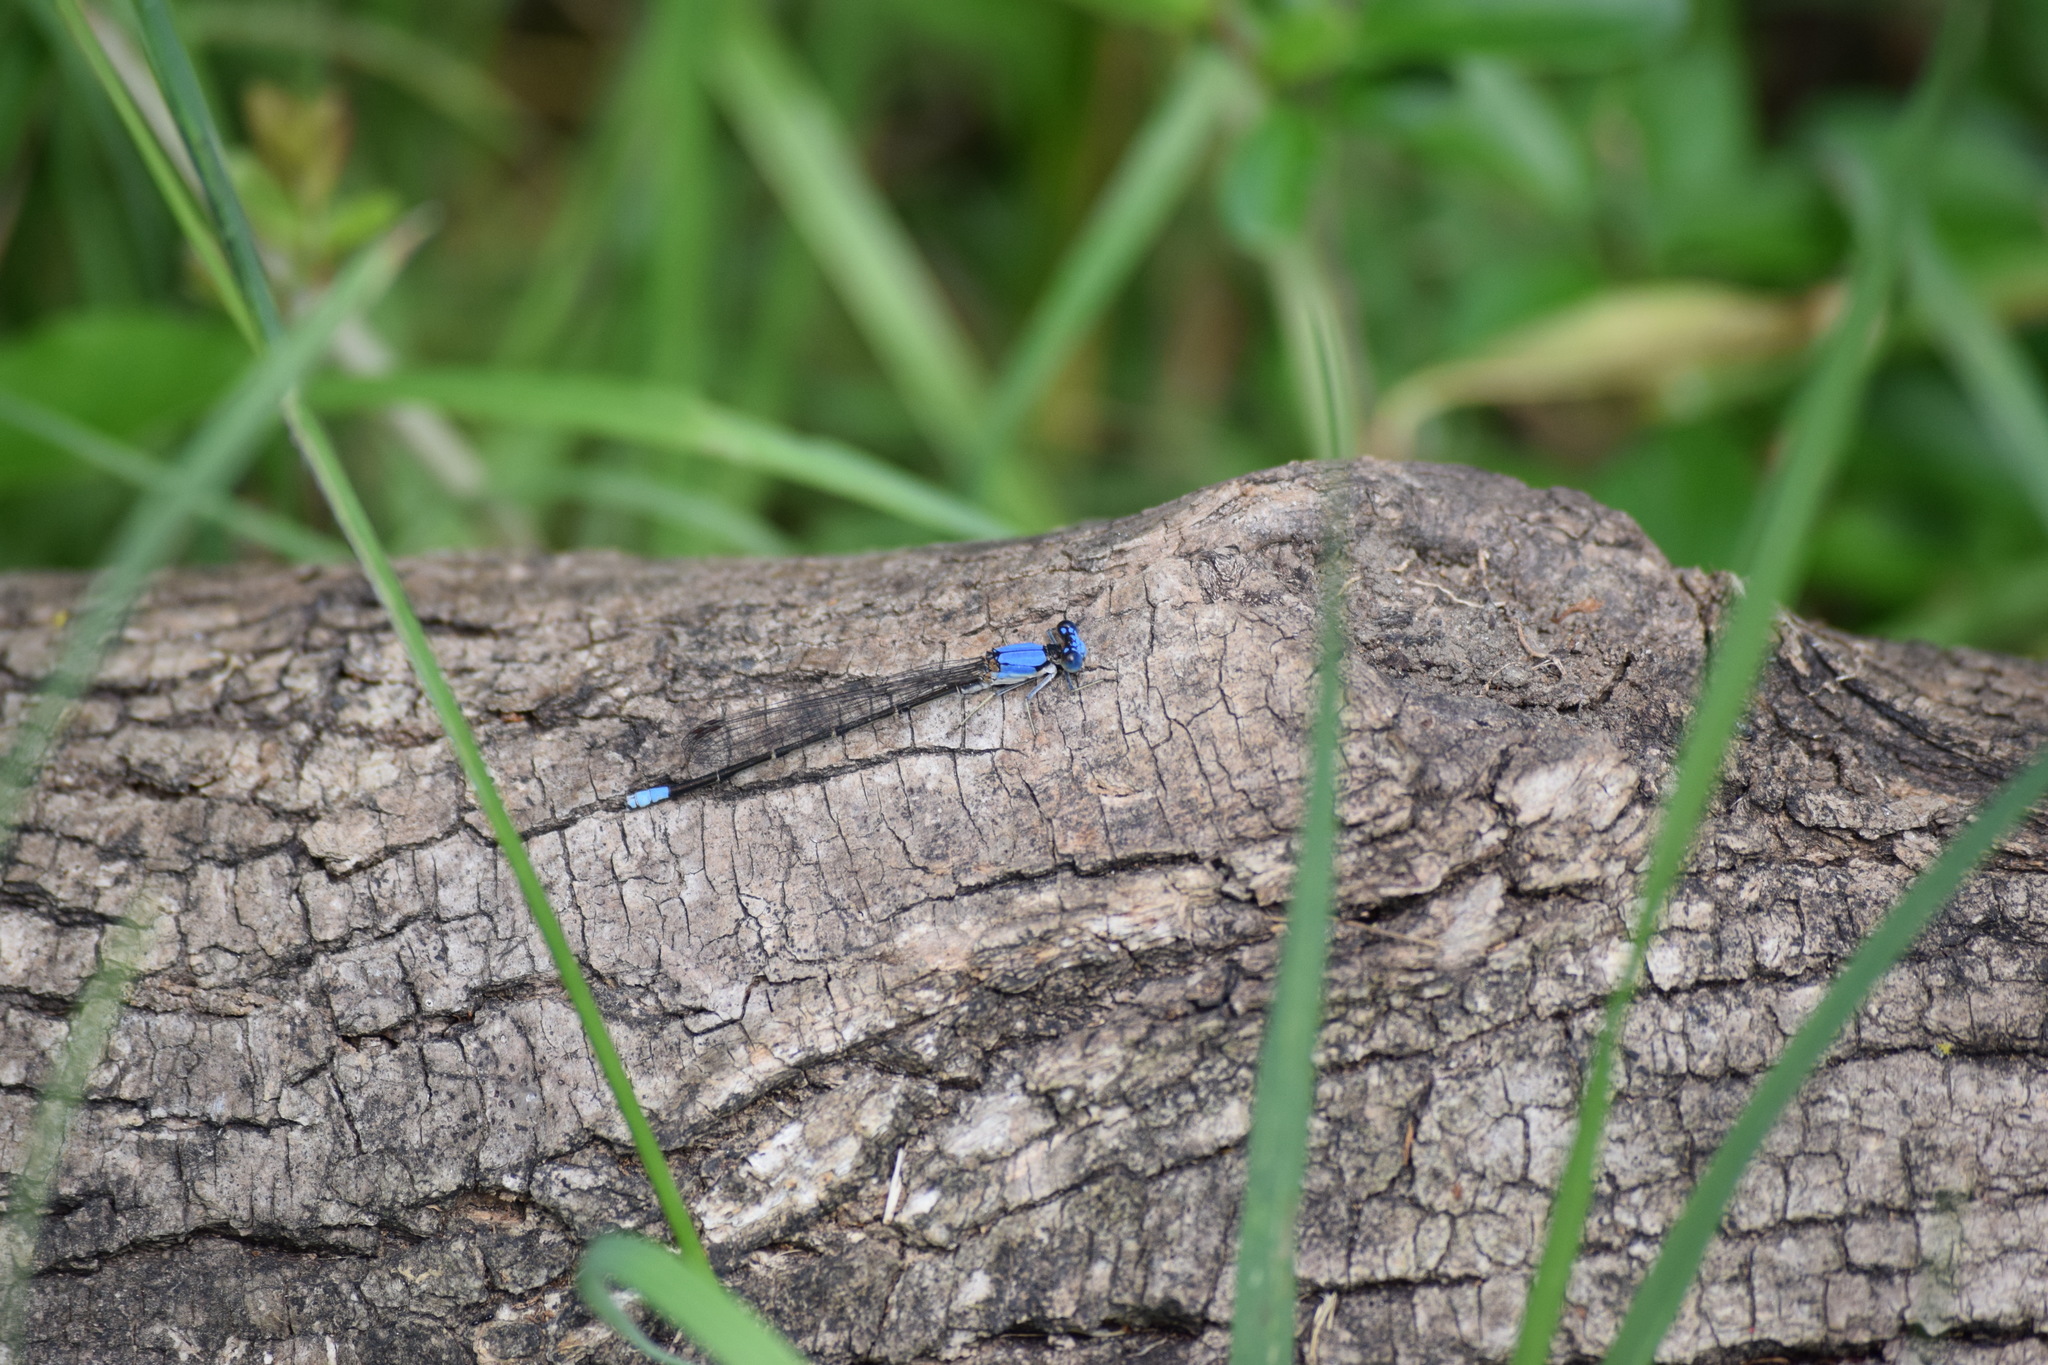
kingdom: Animalia
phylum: Arthropoda
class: Insecta
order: Odonata
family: Coenagrionidae
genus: Argia
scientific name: Argia apicalis
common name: Blue-fronted dancer
